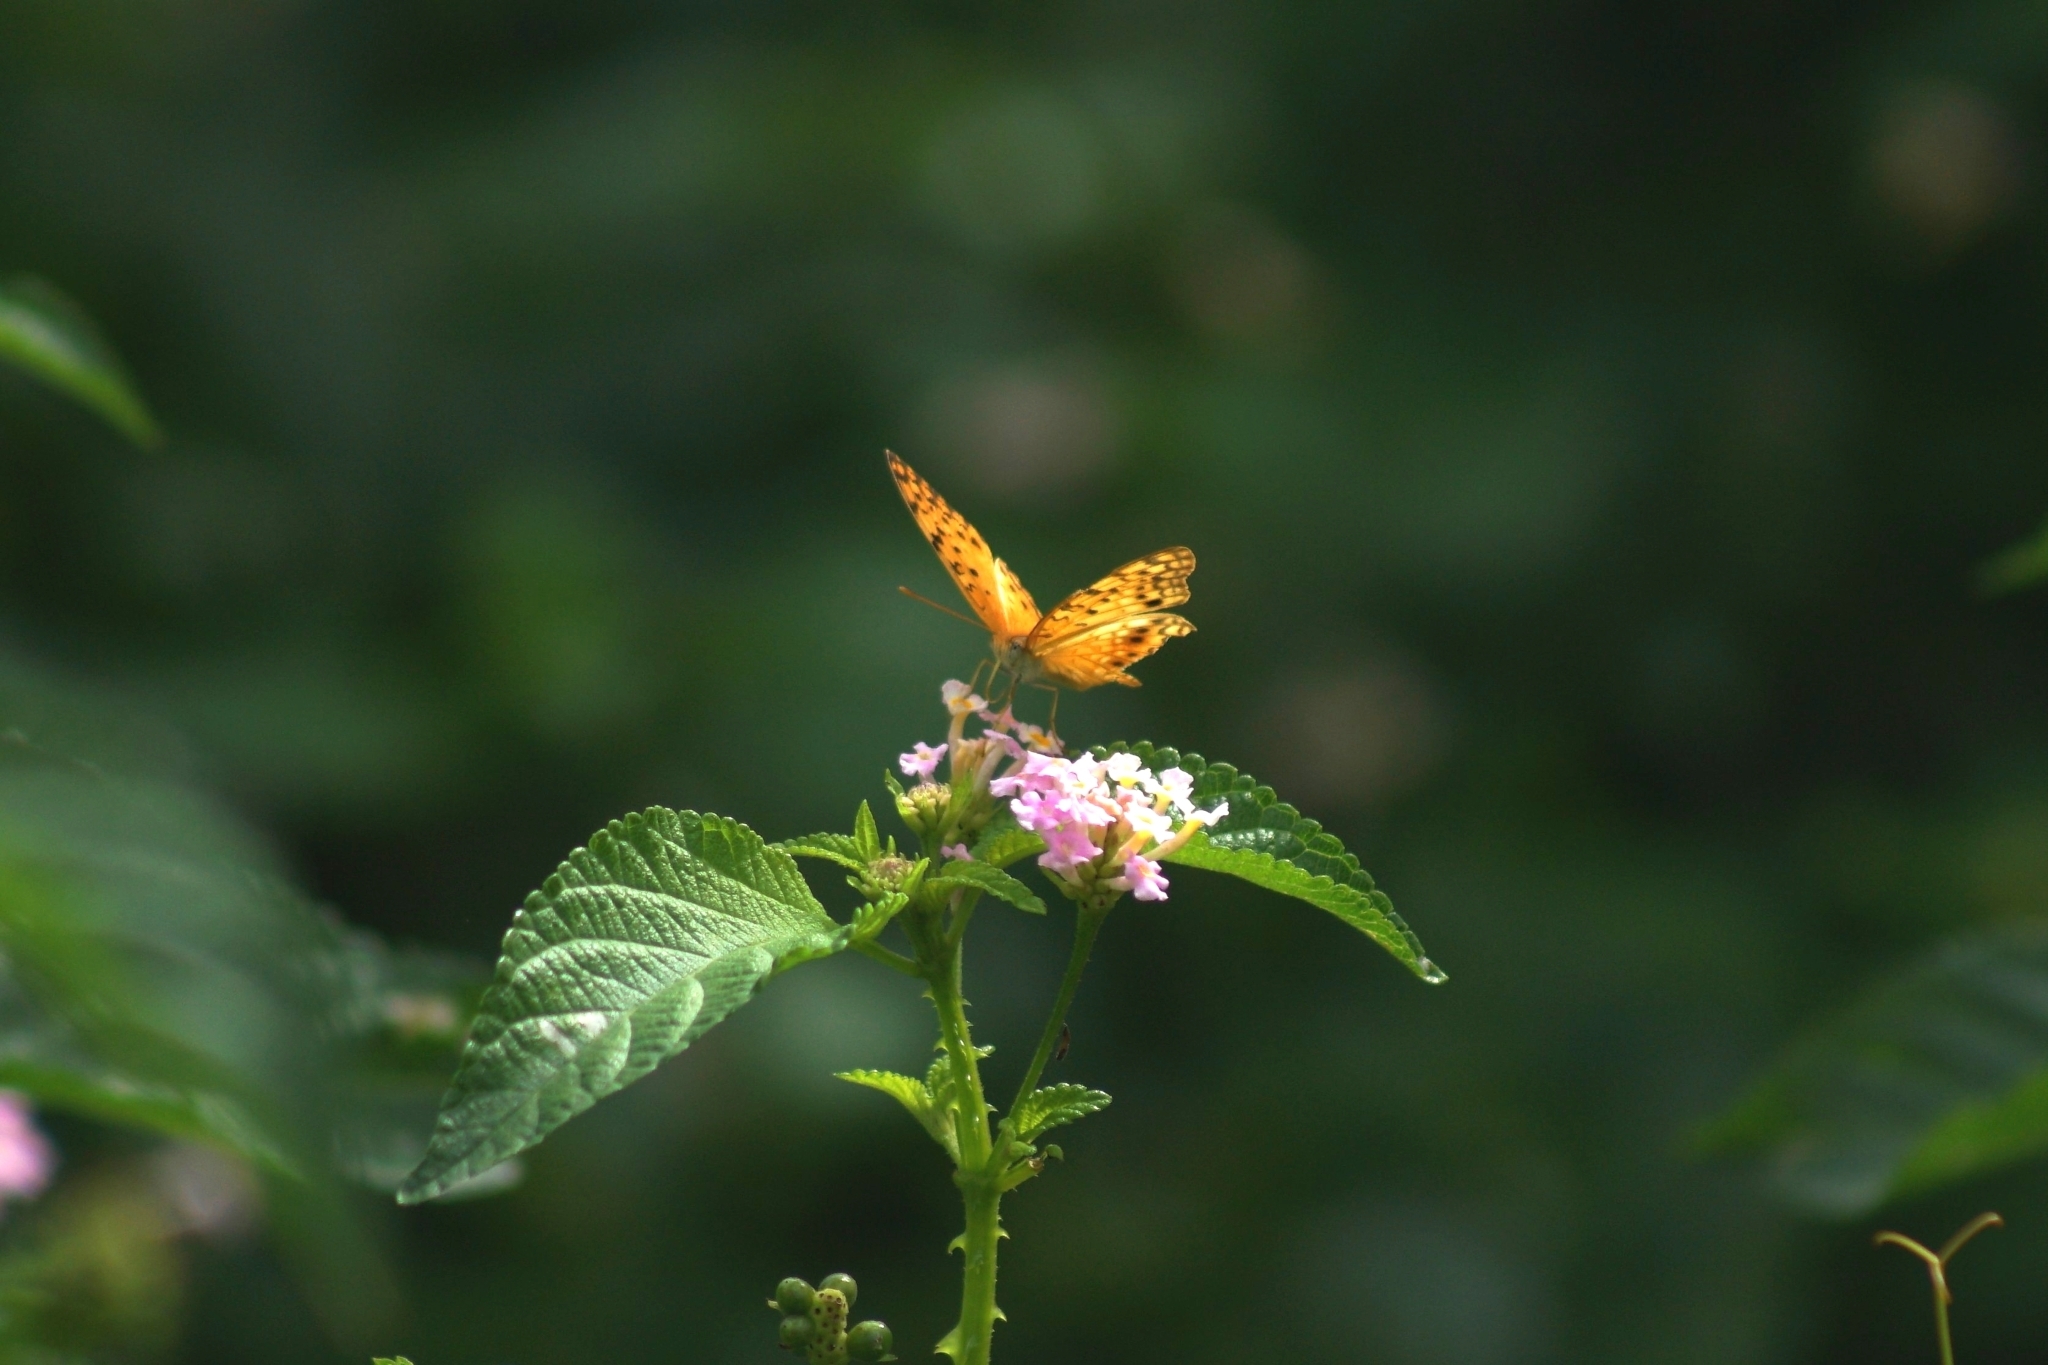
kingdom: Animalia
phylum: Arthropoda
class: Insecta
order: Lepidoptera
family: Nymphalidae
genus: Phalanta
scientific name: Phalanta phalantha
